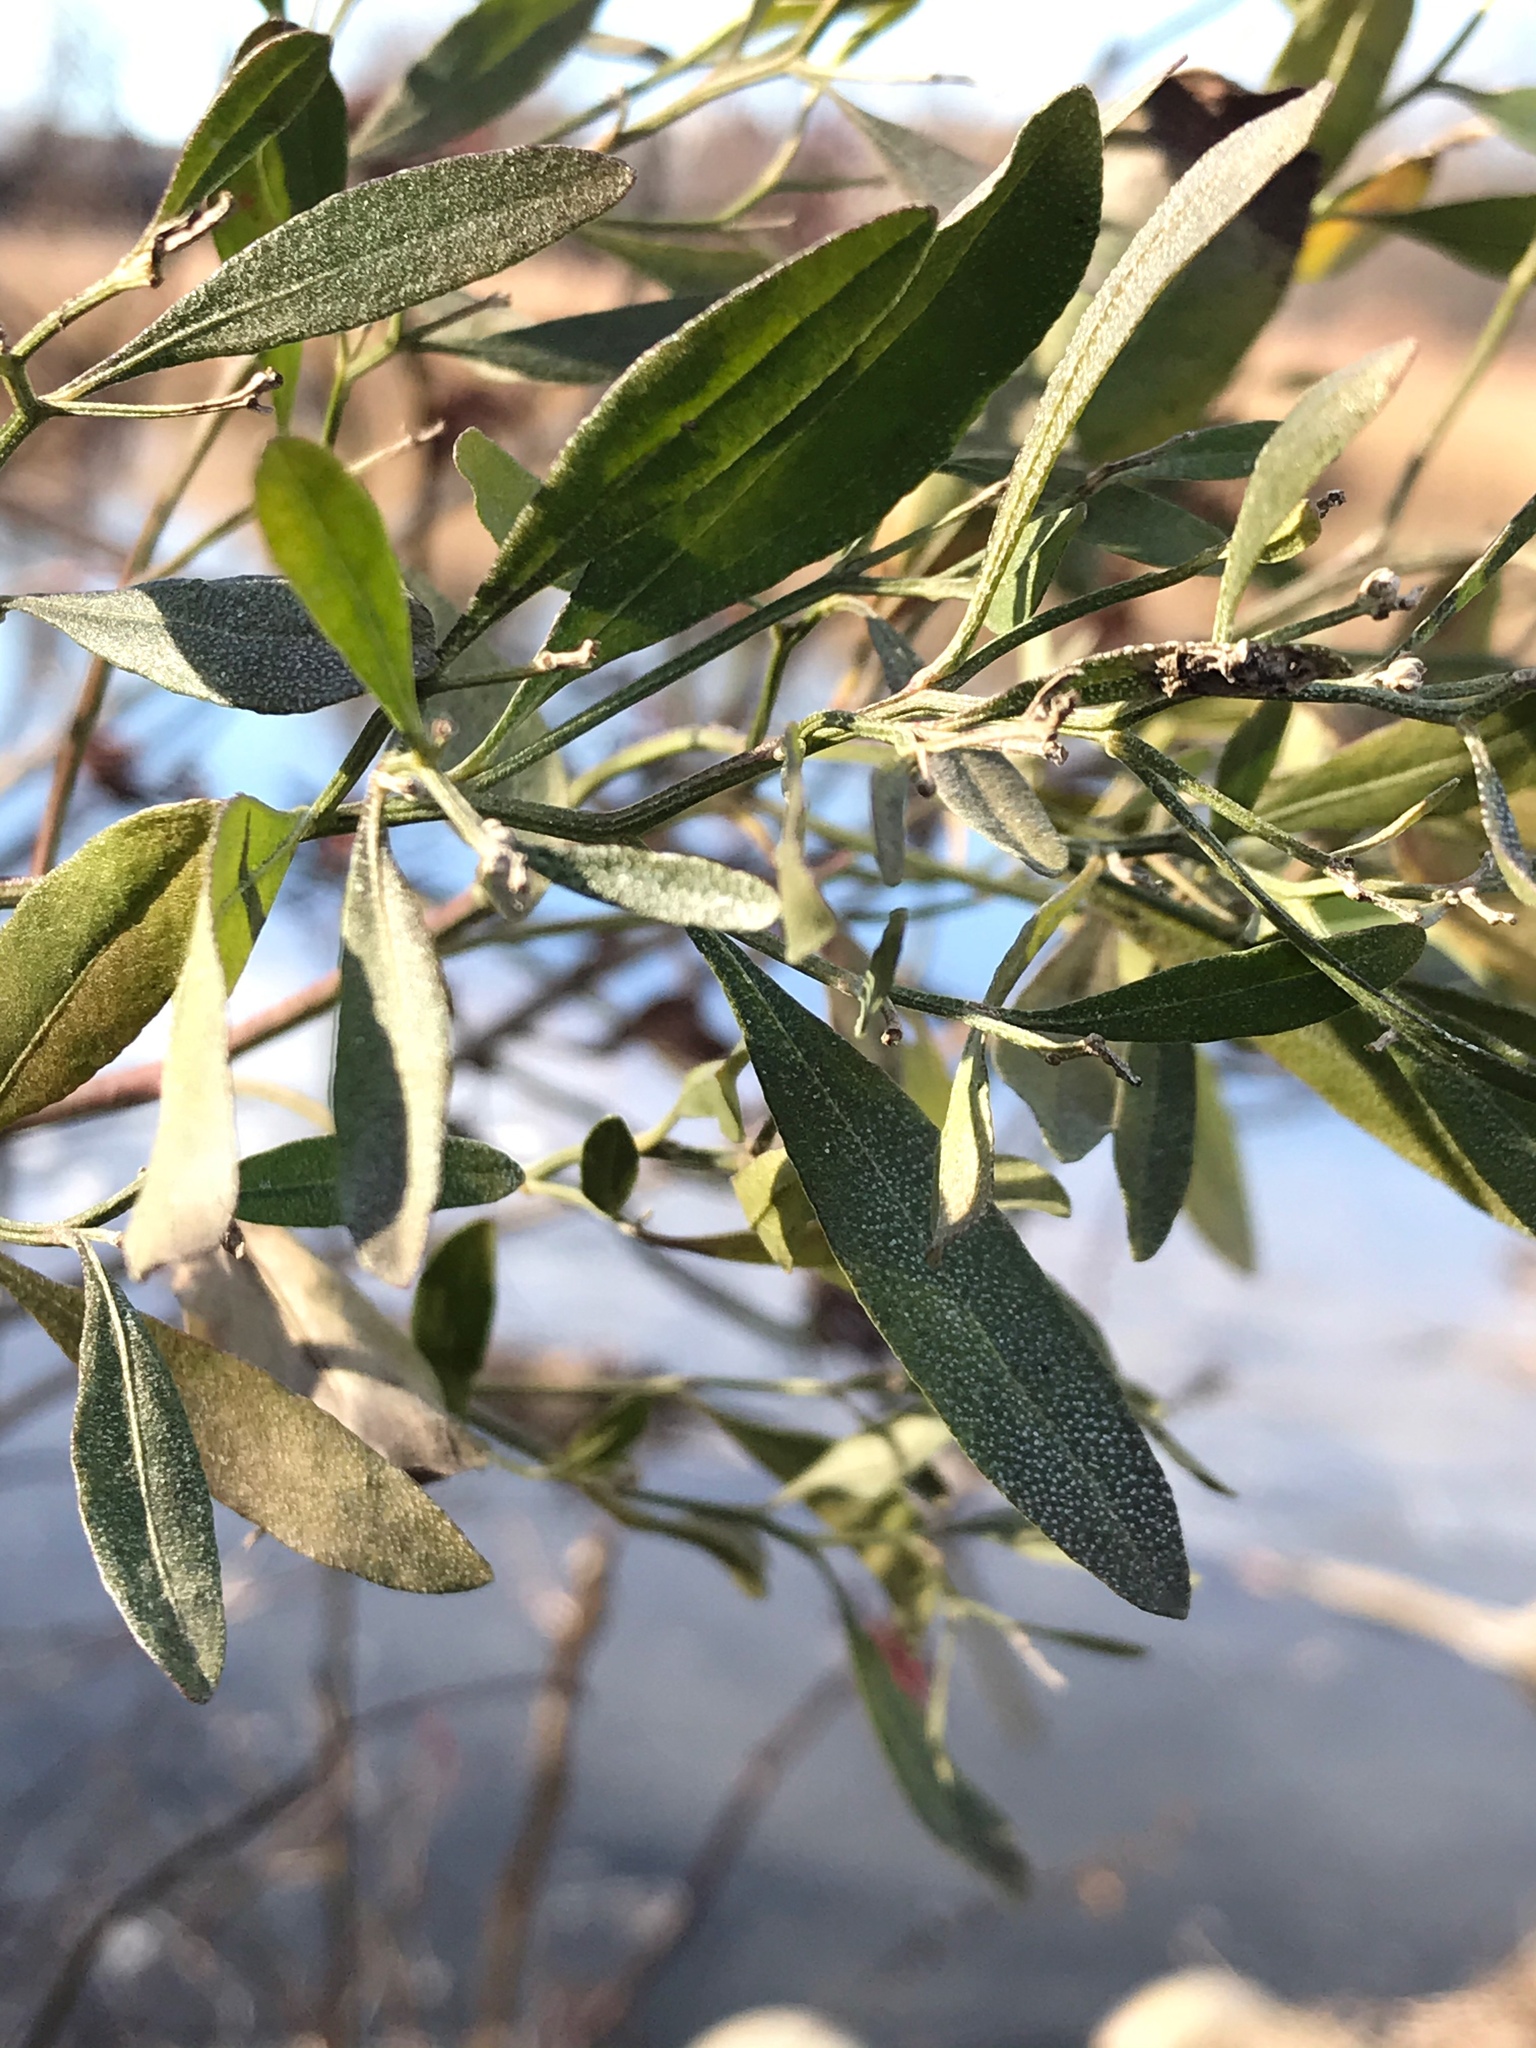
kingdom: Plantae
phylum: Tracheophyta
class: Magnoliopsida
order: Asterales
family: Asteraceae
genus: Baccharis
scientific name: Baccharis halimifolia
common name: Eastern baccharis
